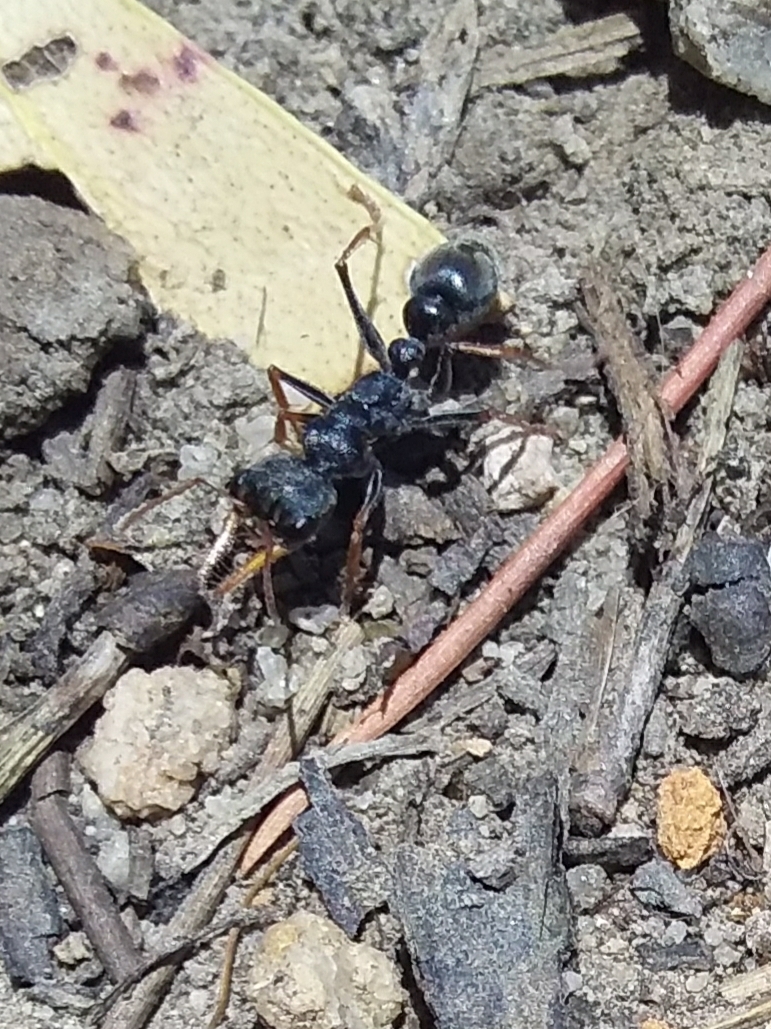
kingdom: Animalia
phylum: Arthropoda
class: Insecta
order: Hymenoptera
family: Formicidae
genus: Myrmecia
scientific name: Myrmecia pilosula
